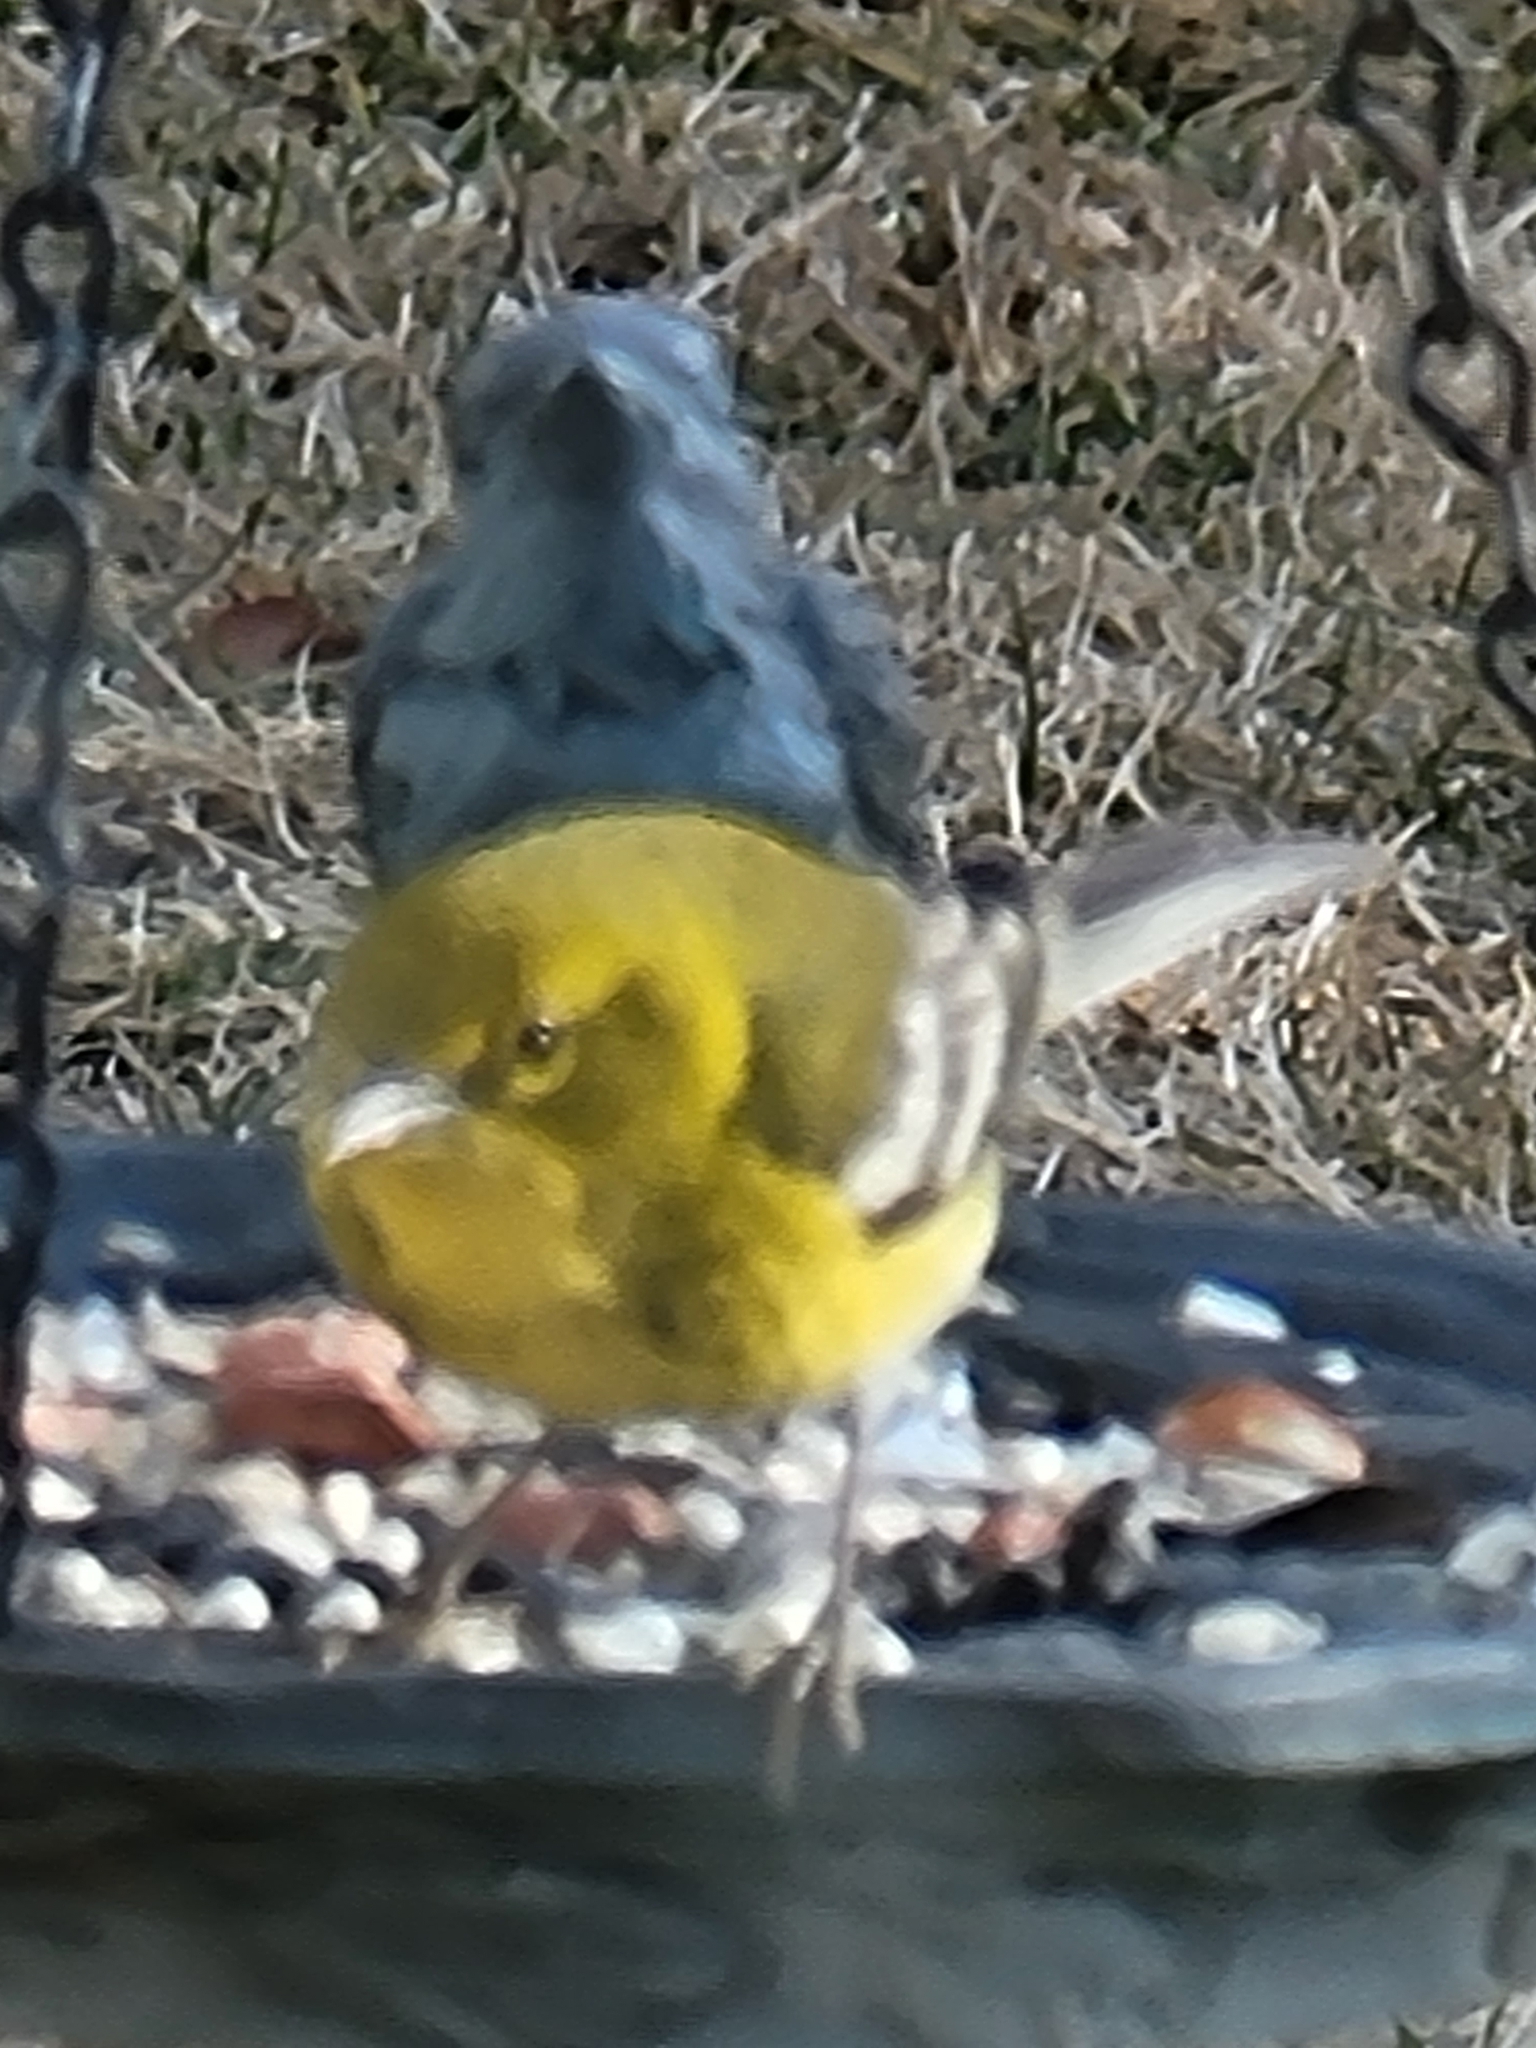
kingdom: Animalia
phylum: Chordata
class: Aves
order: Passeriformes
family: Parulidae
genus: Setophaga
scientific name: Setophaga pinus
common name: Pine warbler
